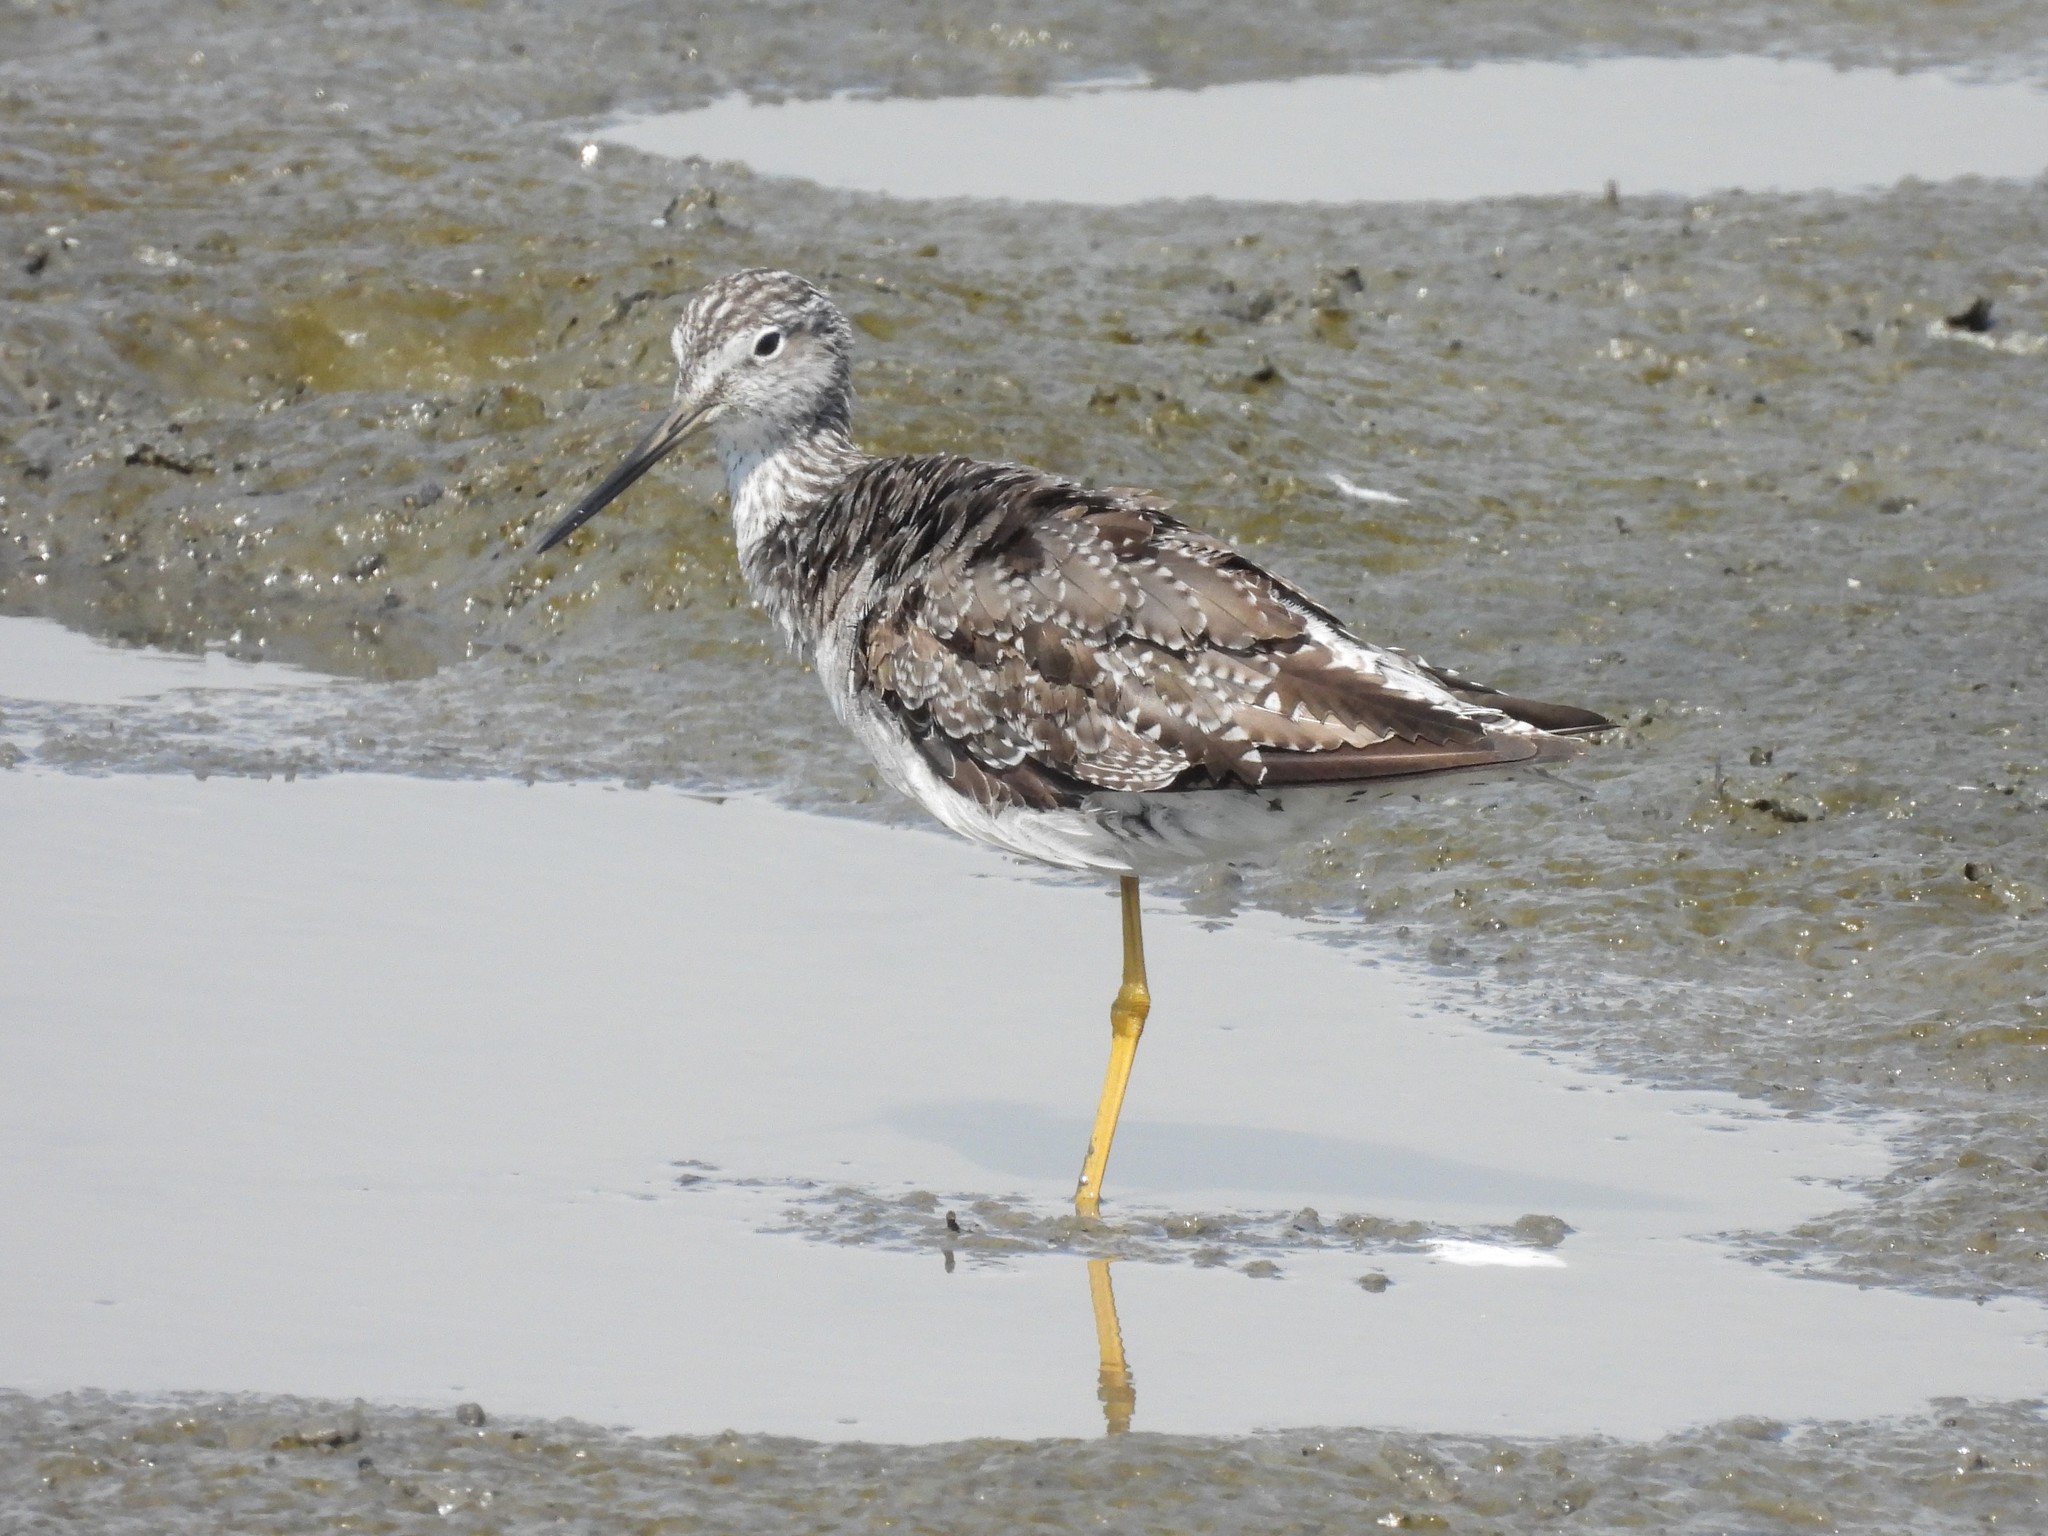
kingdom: Animalia
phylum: Chordata
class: Aves
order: Charadriiformes
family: Scolopacidae
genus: Tringa
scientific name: Tringa melanoleuca
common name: Greater yellowlegs
